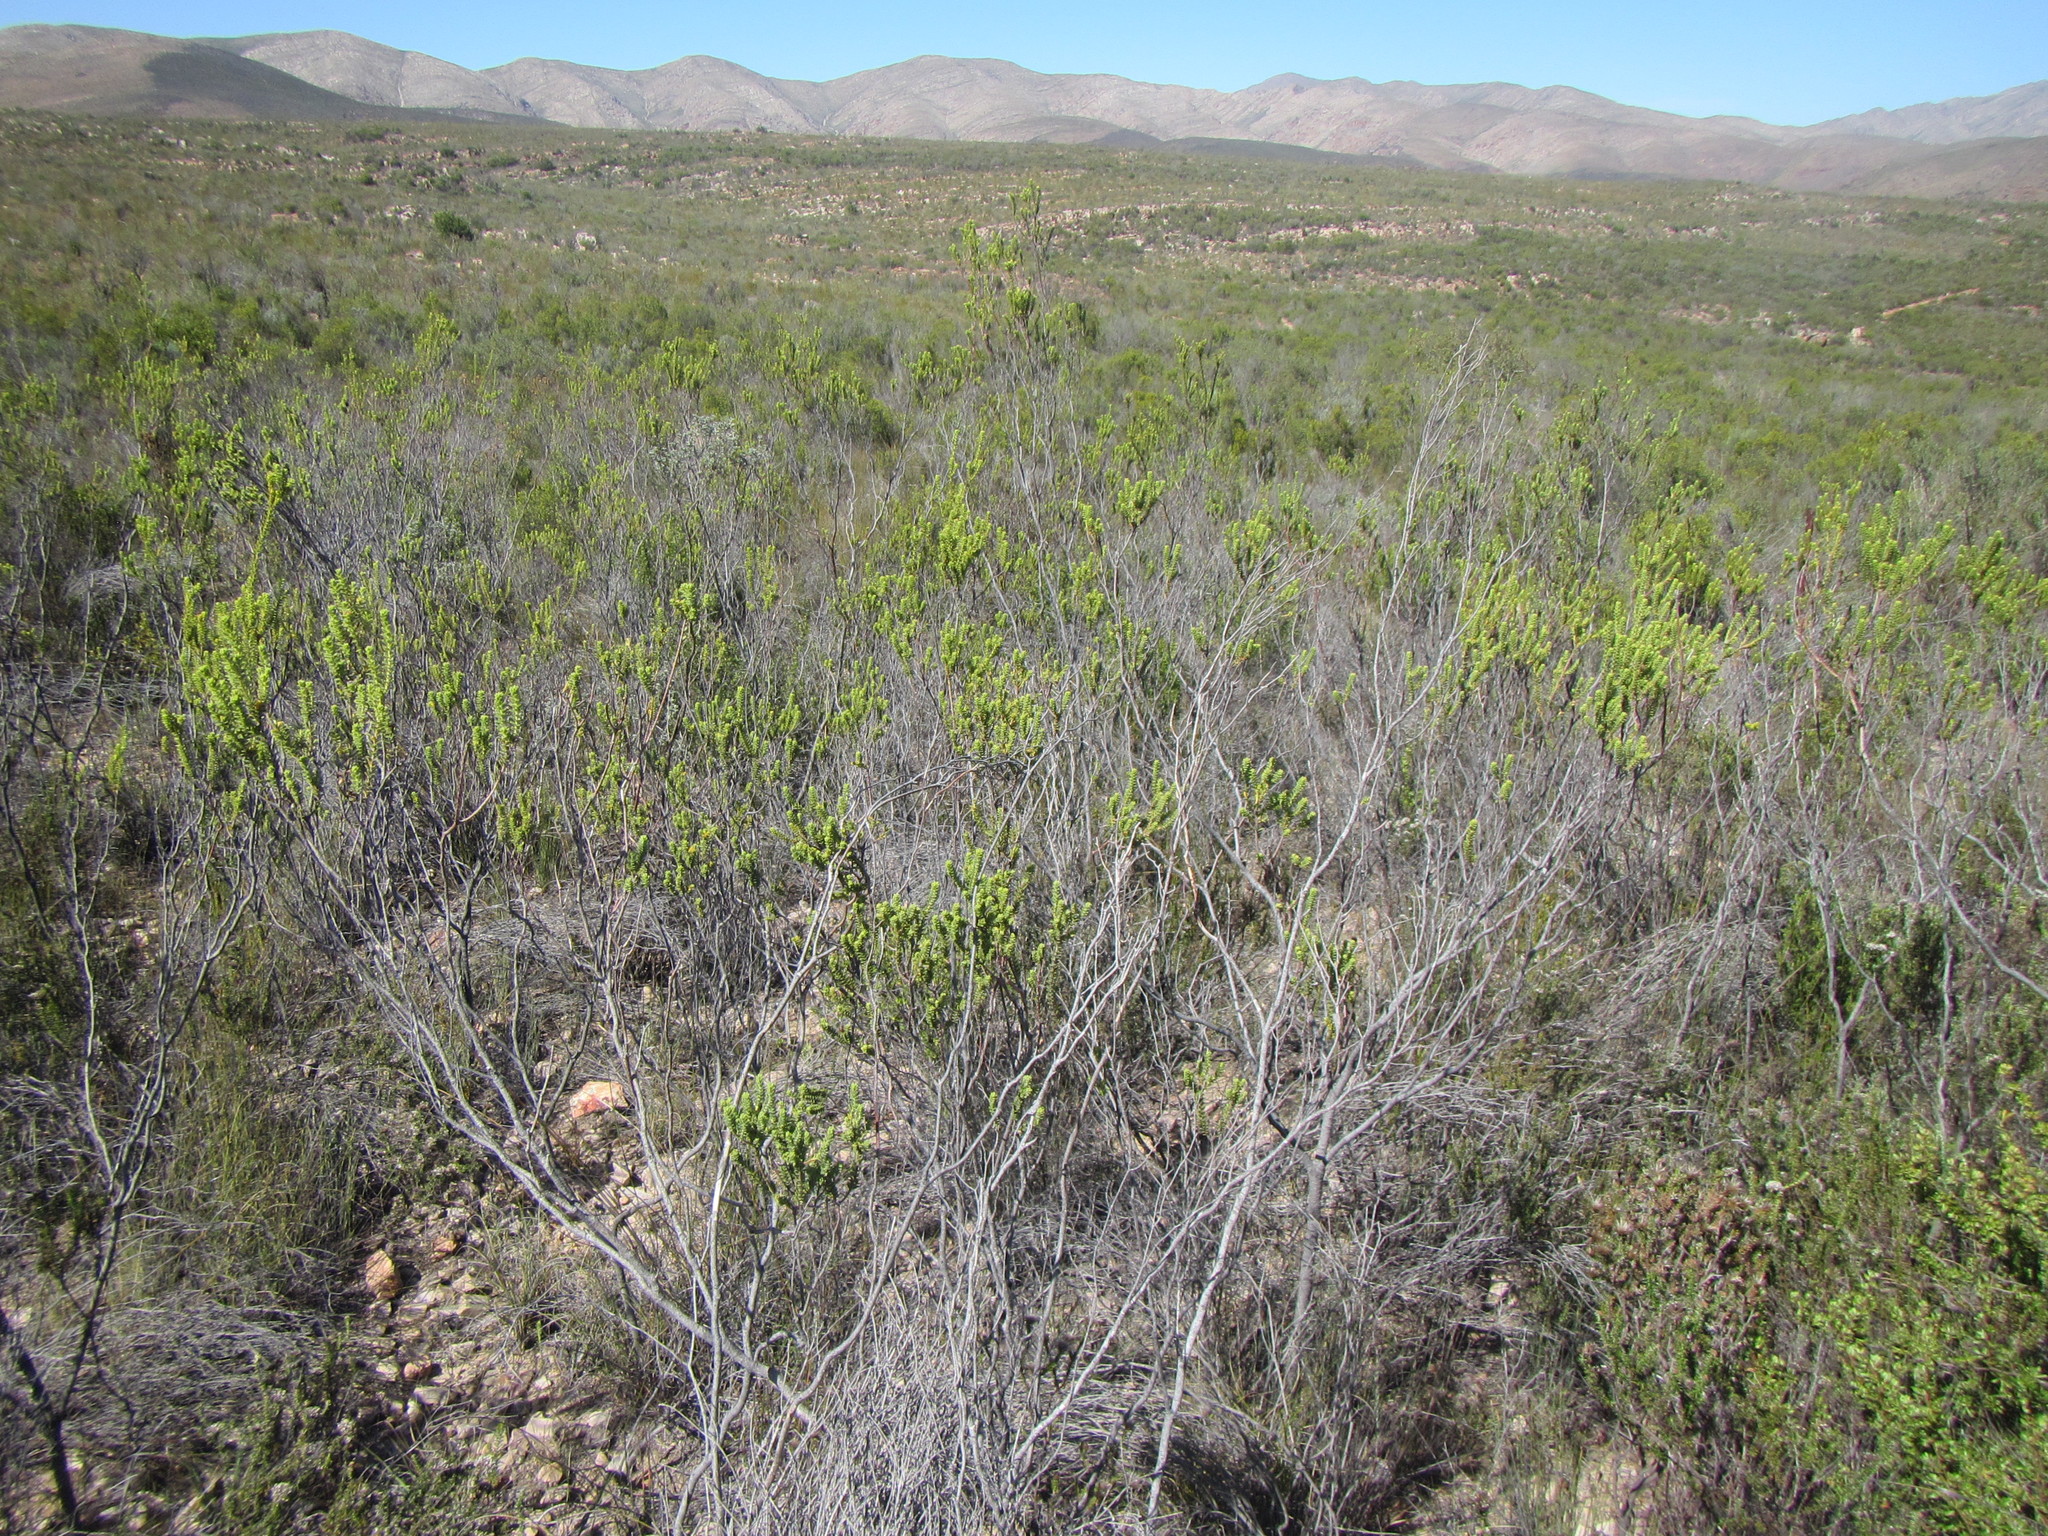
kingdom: Plantae
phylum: Tracheophyta
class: Magnoliopsida
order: Sapindales
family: Rutaceae
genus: Euchaetis
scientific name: Euchaetis vallis-simiae
